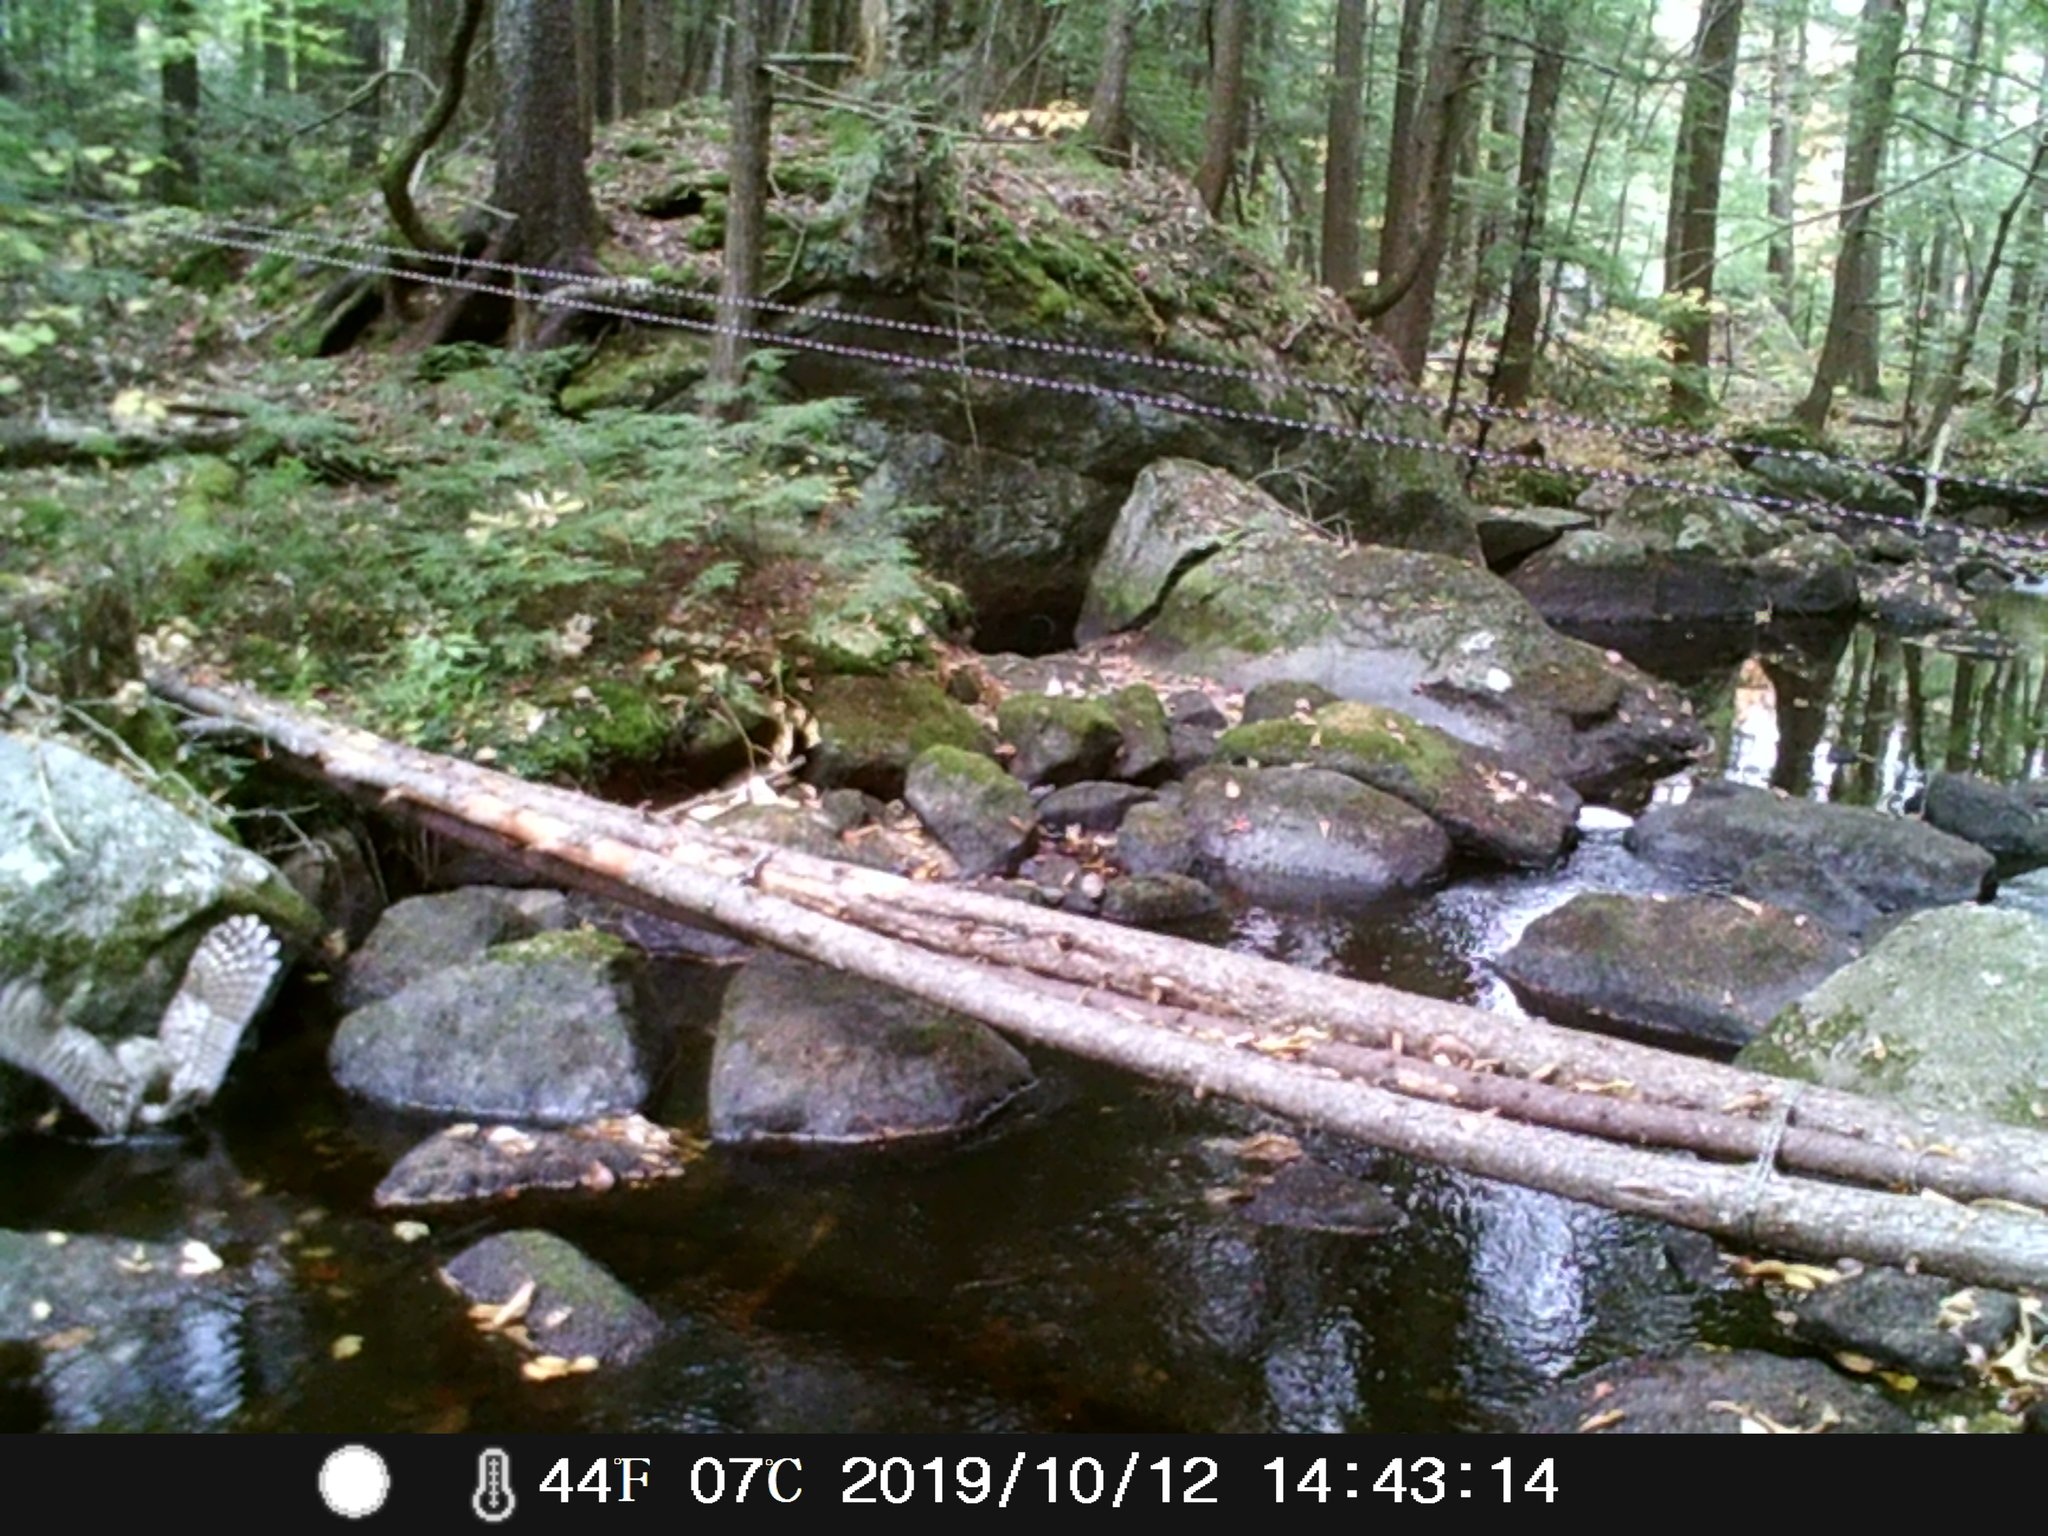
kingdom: Animalia
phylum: Chordata
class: Aves
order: Strigiformes
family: Strigidae
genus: Strix
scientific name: Strix varia
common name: Barred owl
